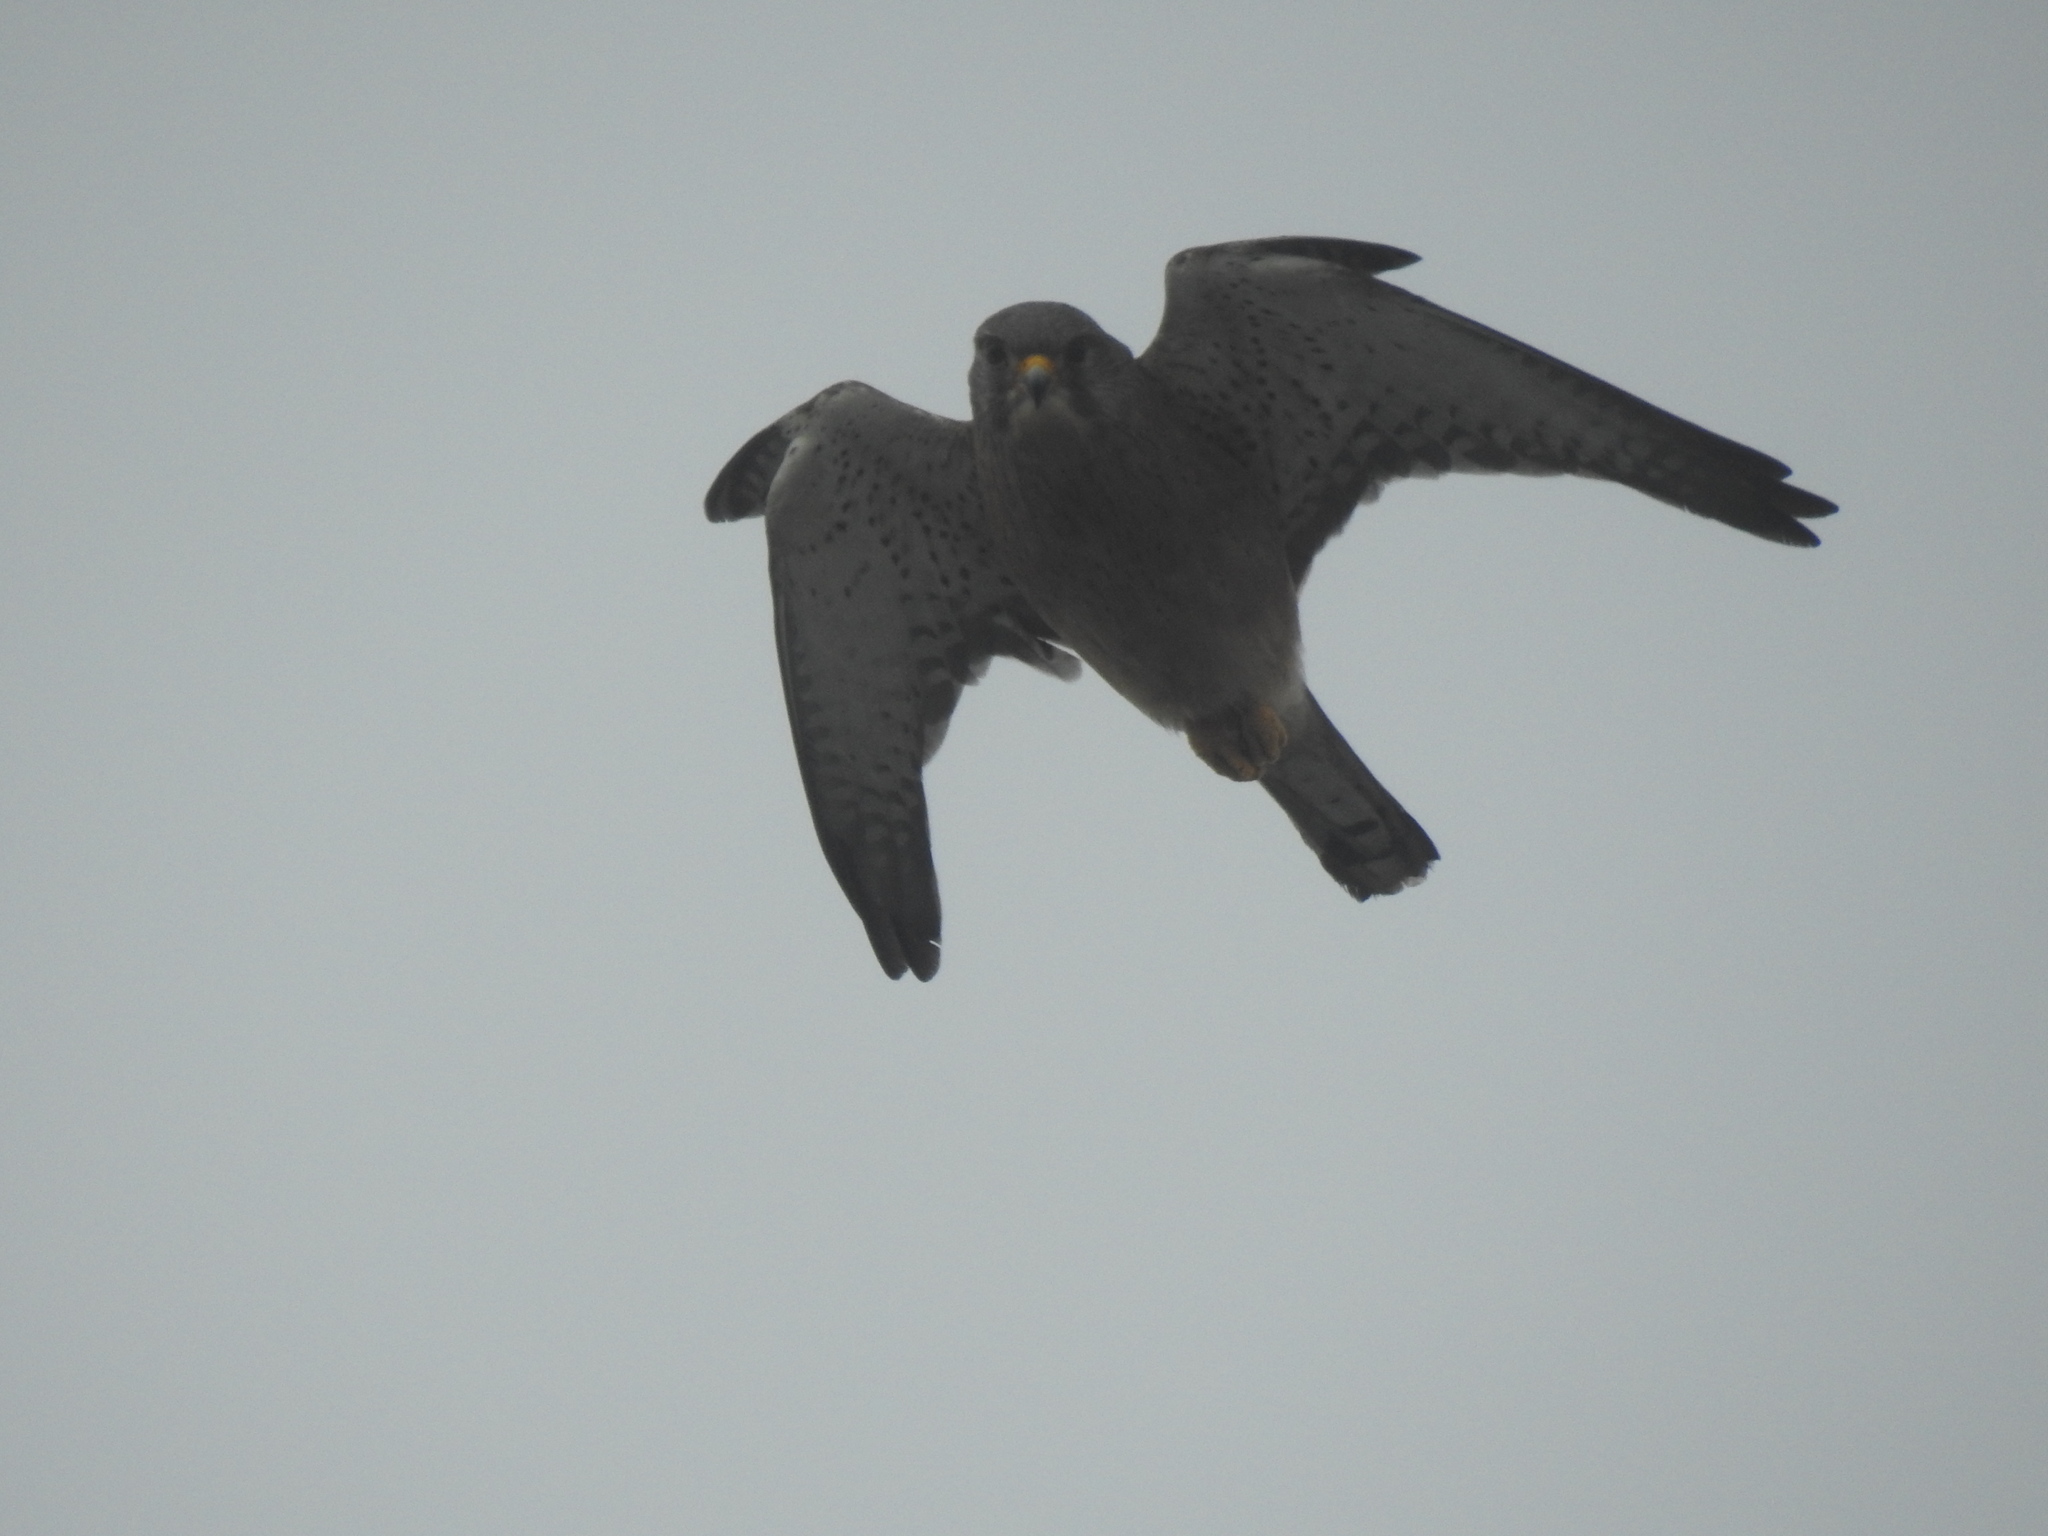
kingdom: Animalia
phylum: Chordata
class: Aves
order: Falconiformes
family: Falconidae
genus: Falco
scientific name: Falco rupicolus
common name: Rock kestrel
